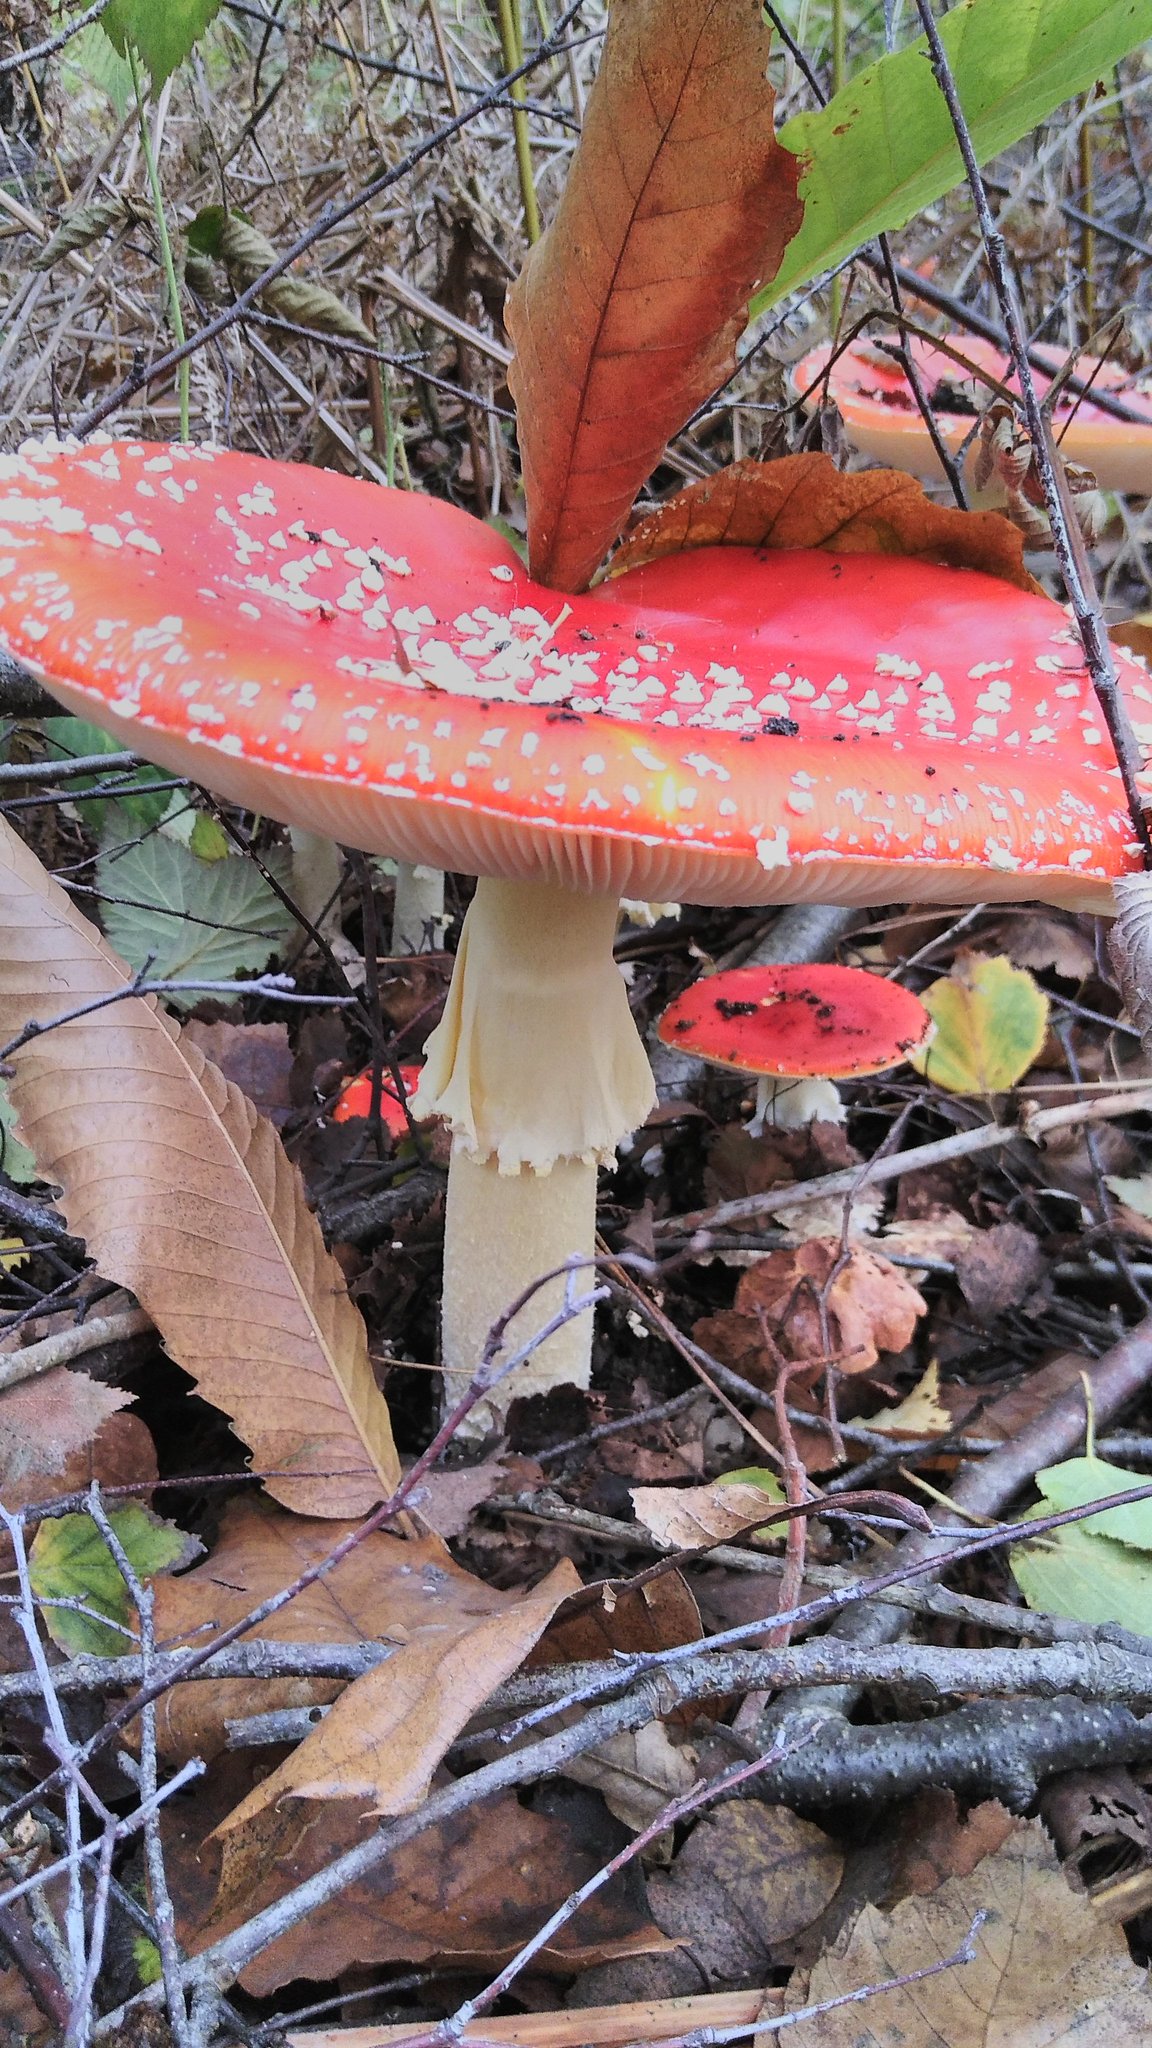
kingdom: Fungi
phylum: Basidiomycota
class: Agaricomycetes
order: Agaricales
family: Amanitaceae
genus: Amanita
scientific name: Amanita muscaria
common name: Fly agaric
